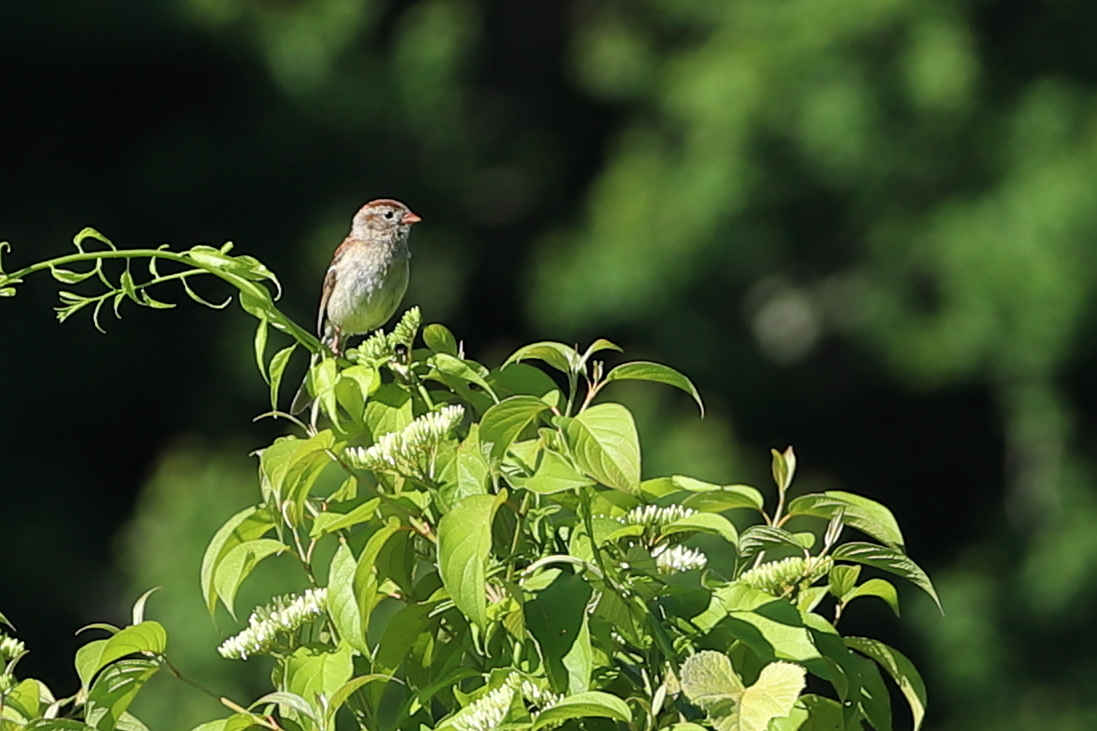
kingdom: Animalia
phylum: Chordata
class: Aves
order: Passeriformes
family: Passerellidae
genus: Spizella
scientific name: Spizella pusilla
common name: Field sparrow
